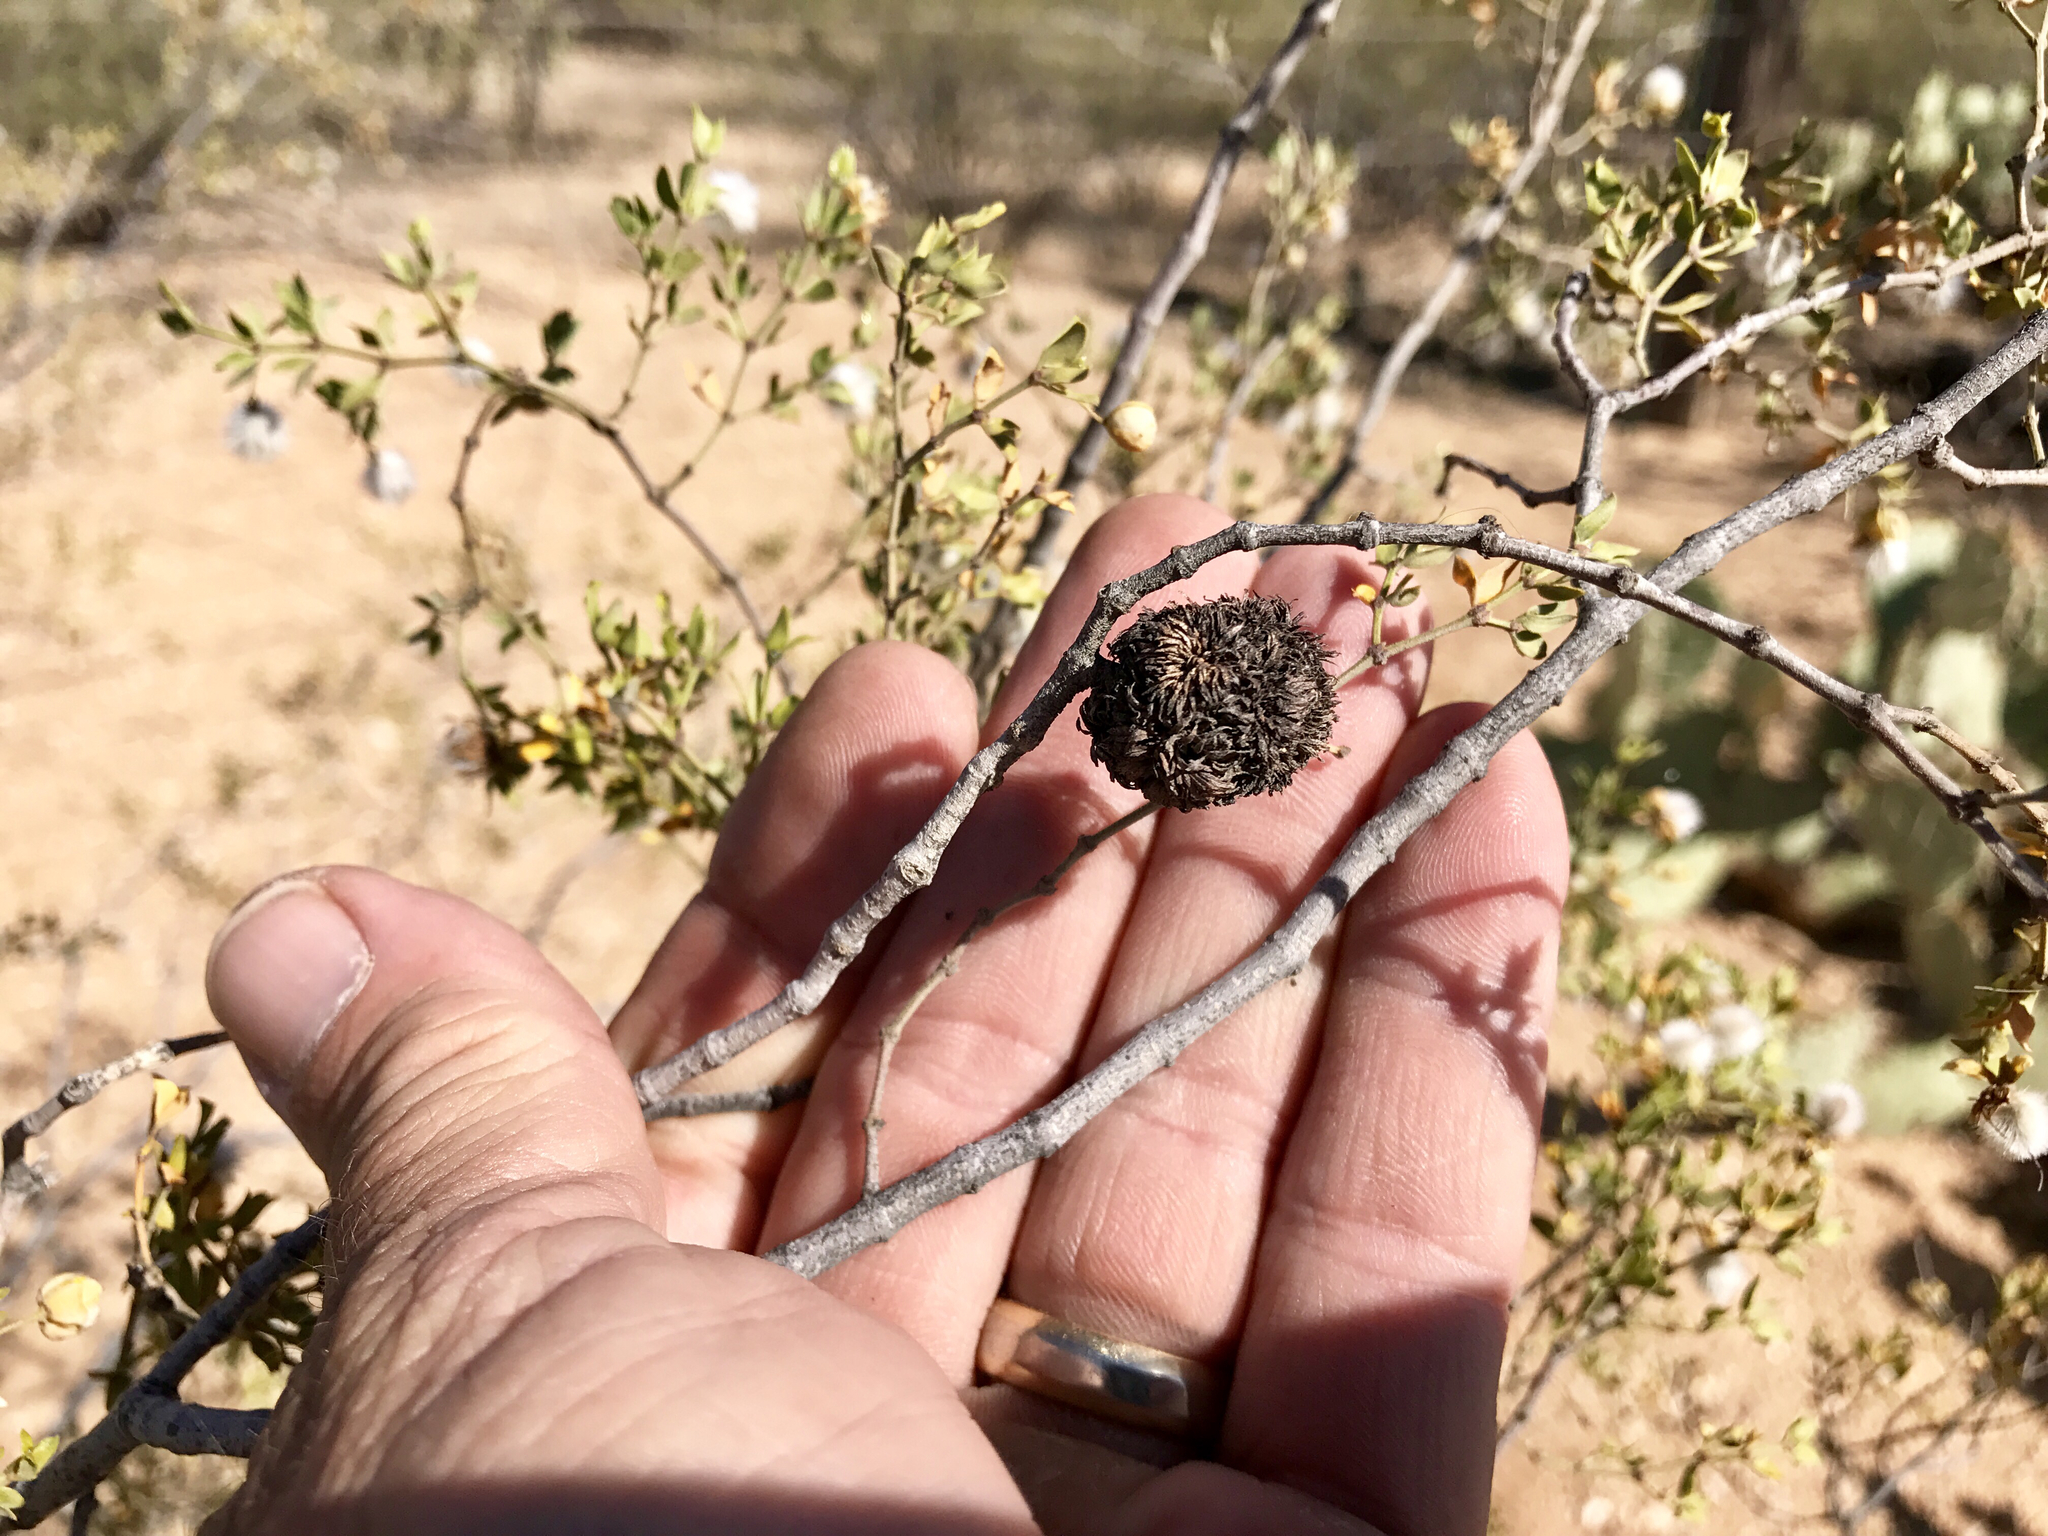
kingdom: Animalia
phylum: Arthropoda
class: Insecta
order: Diptera
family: Cecidomyiidae
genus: Asphondylia
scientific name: Asphondylia auripila
